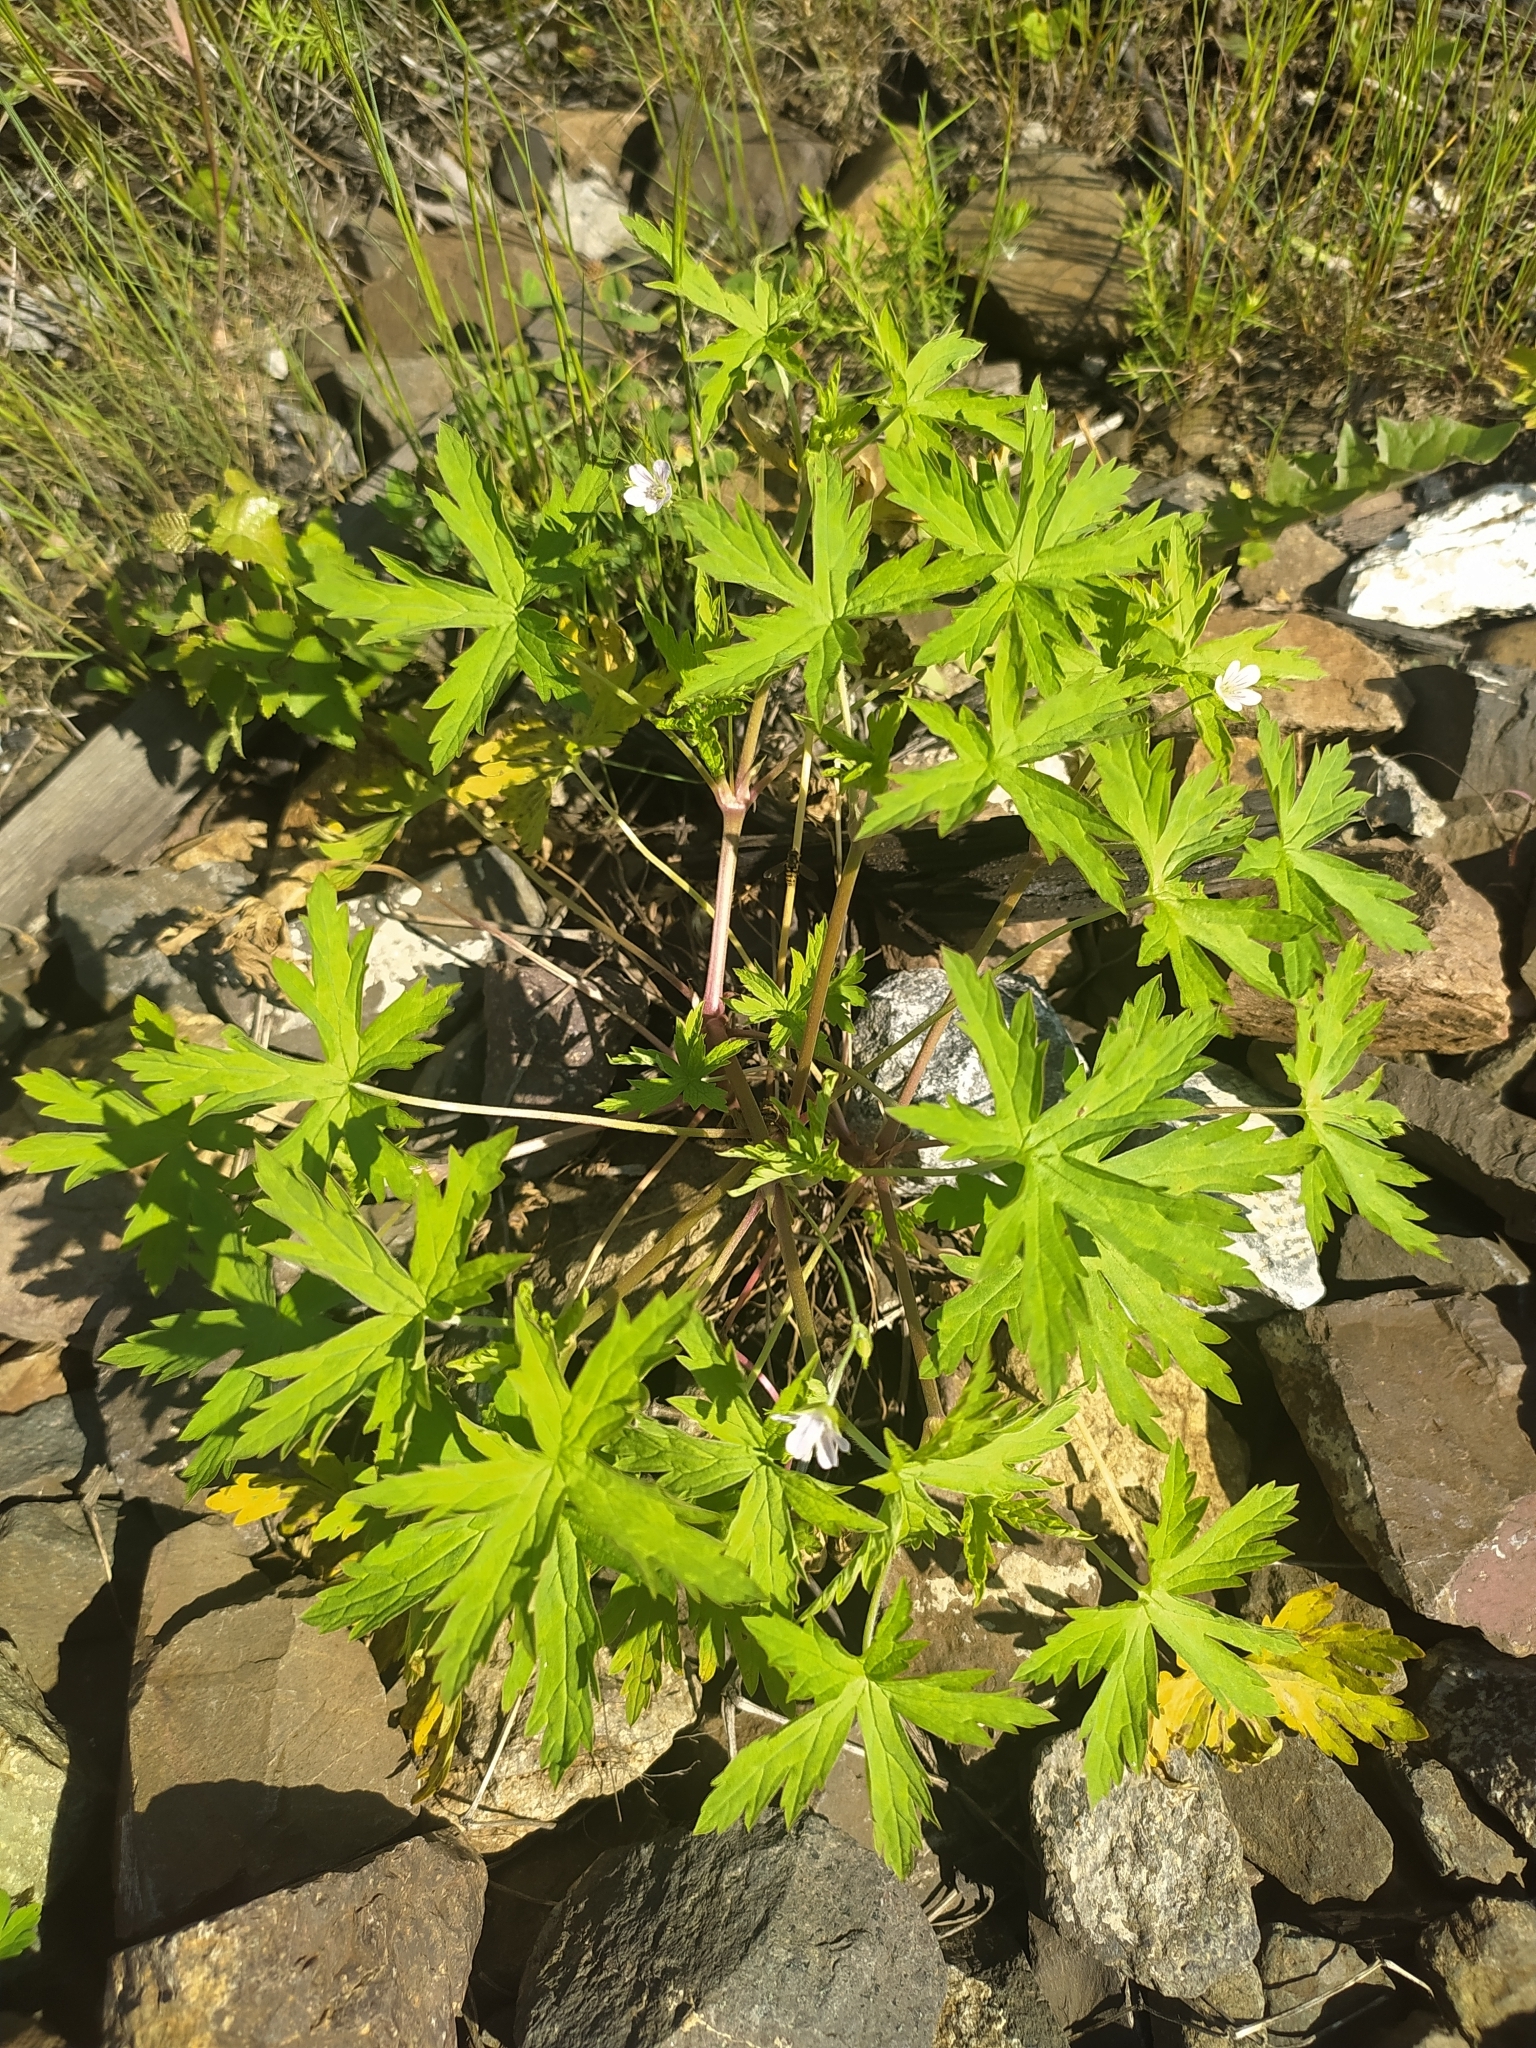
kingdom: Plantae
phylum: Tracheophyta
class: Magnoliopsida
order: Geraniales
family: Geraniaceae
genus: Geranium
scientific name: Geranium sibiricum
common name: Siberian crane's-bill
